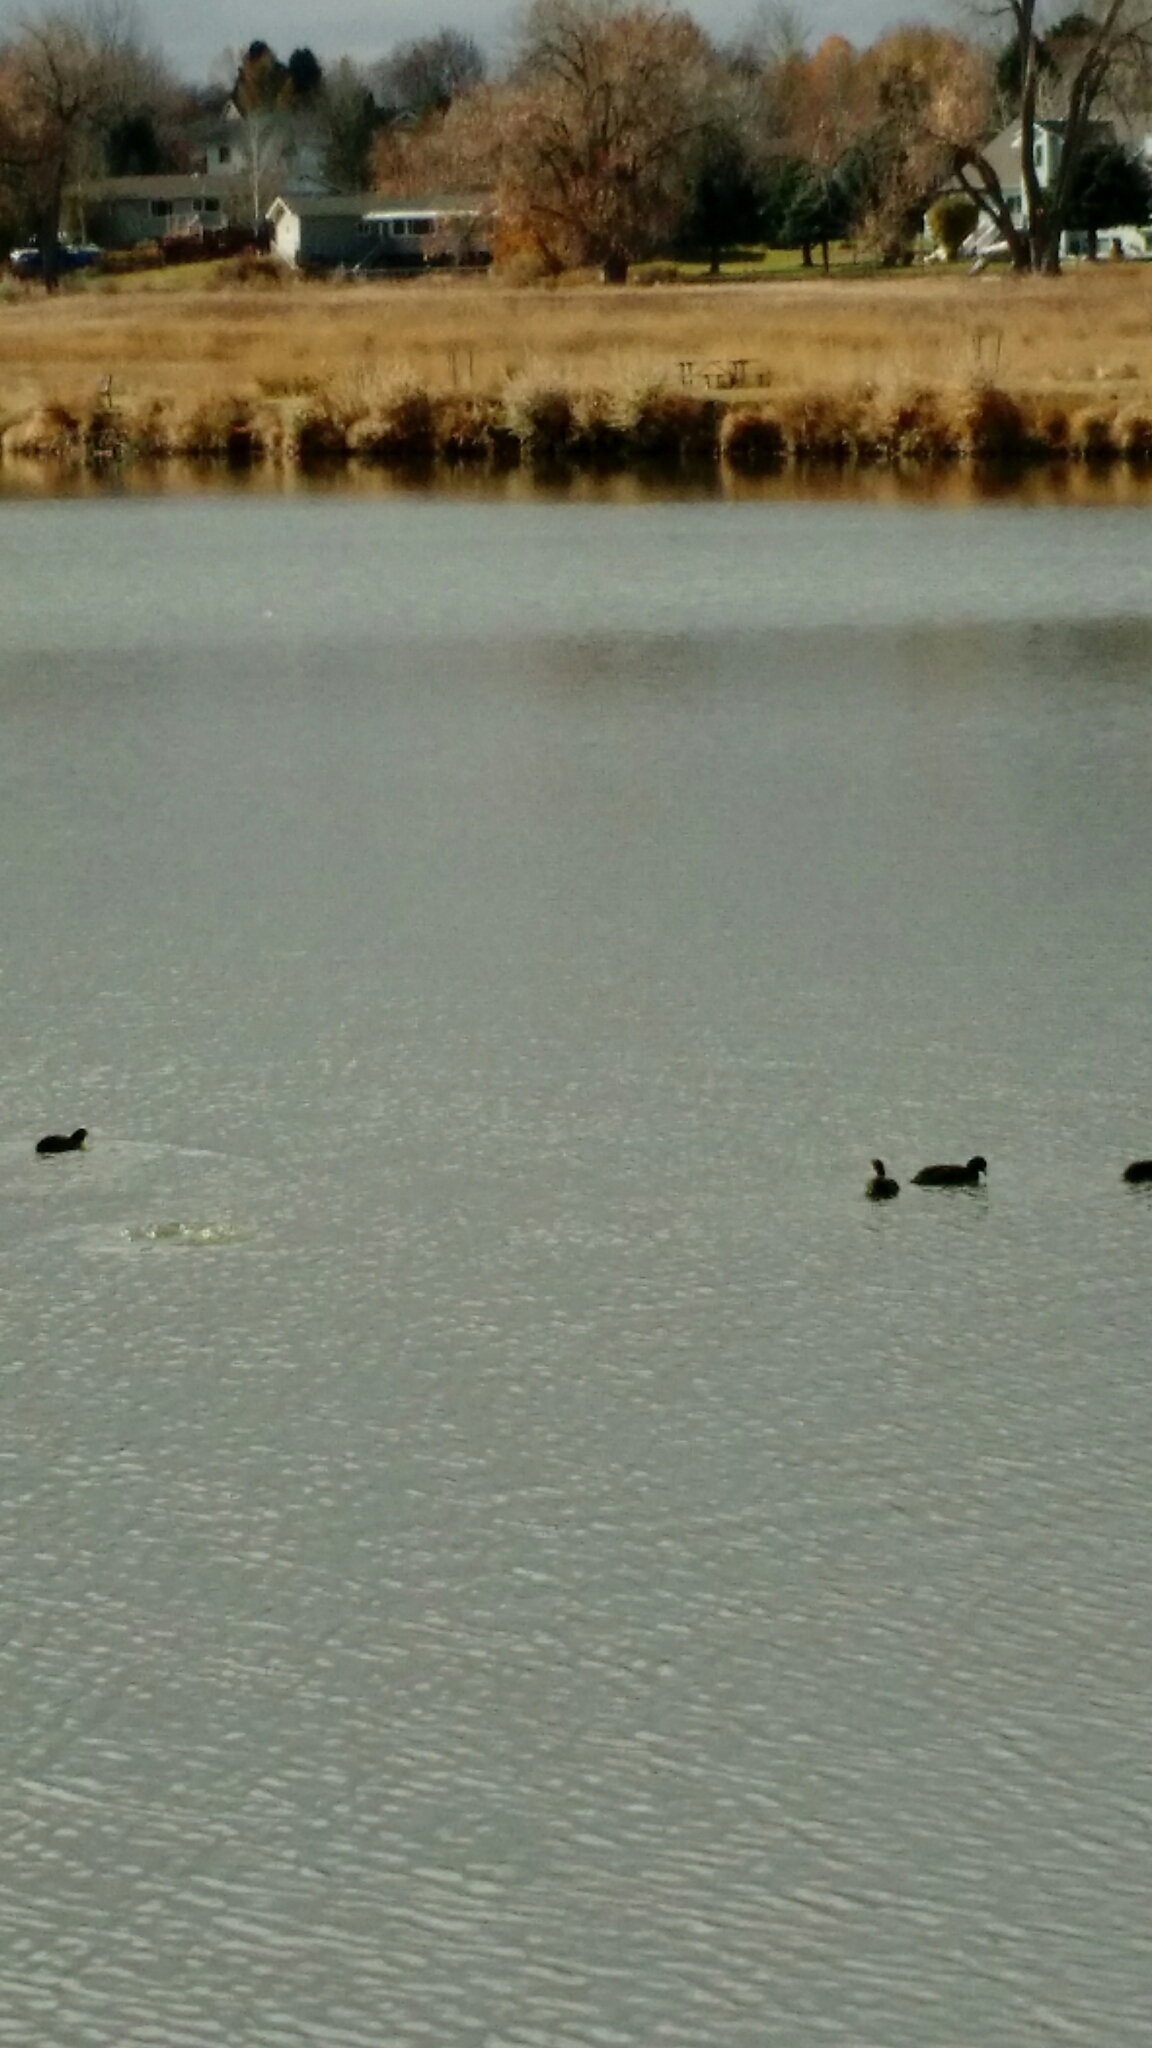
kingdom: Animalia
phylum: Chordata
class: Aves
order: Gruiformes
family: Rallidae
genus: Fulica
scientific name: Fulica americana
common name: American coot
